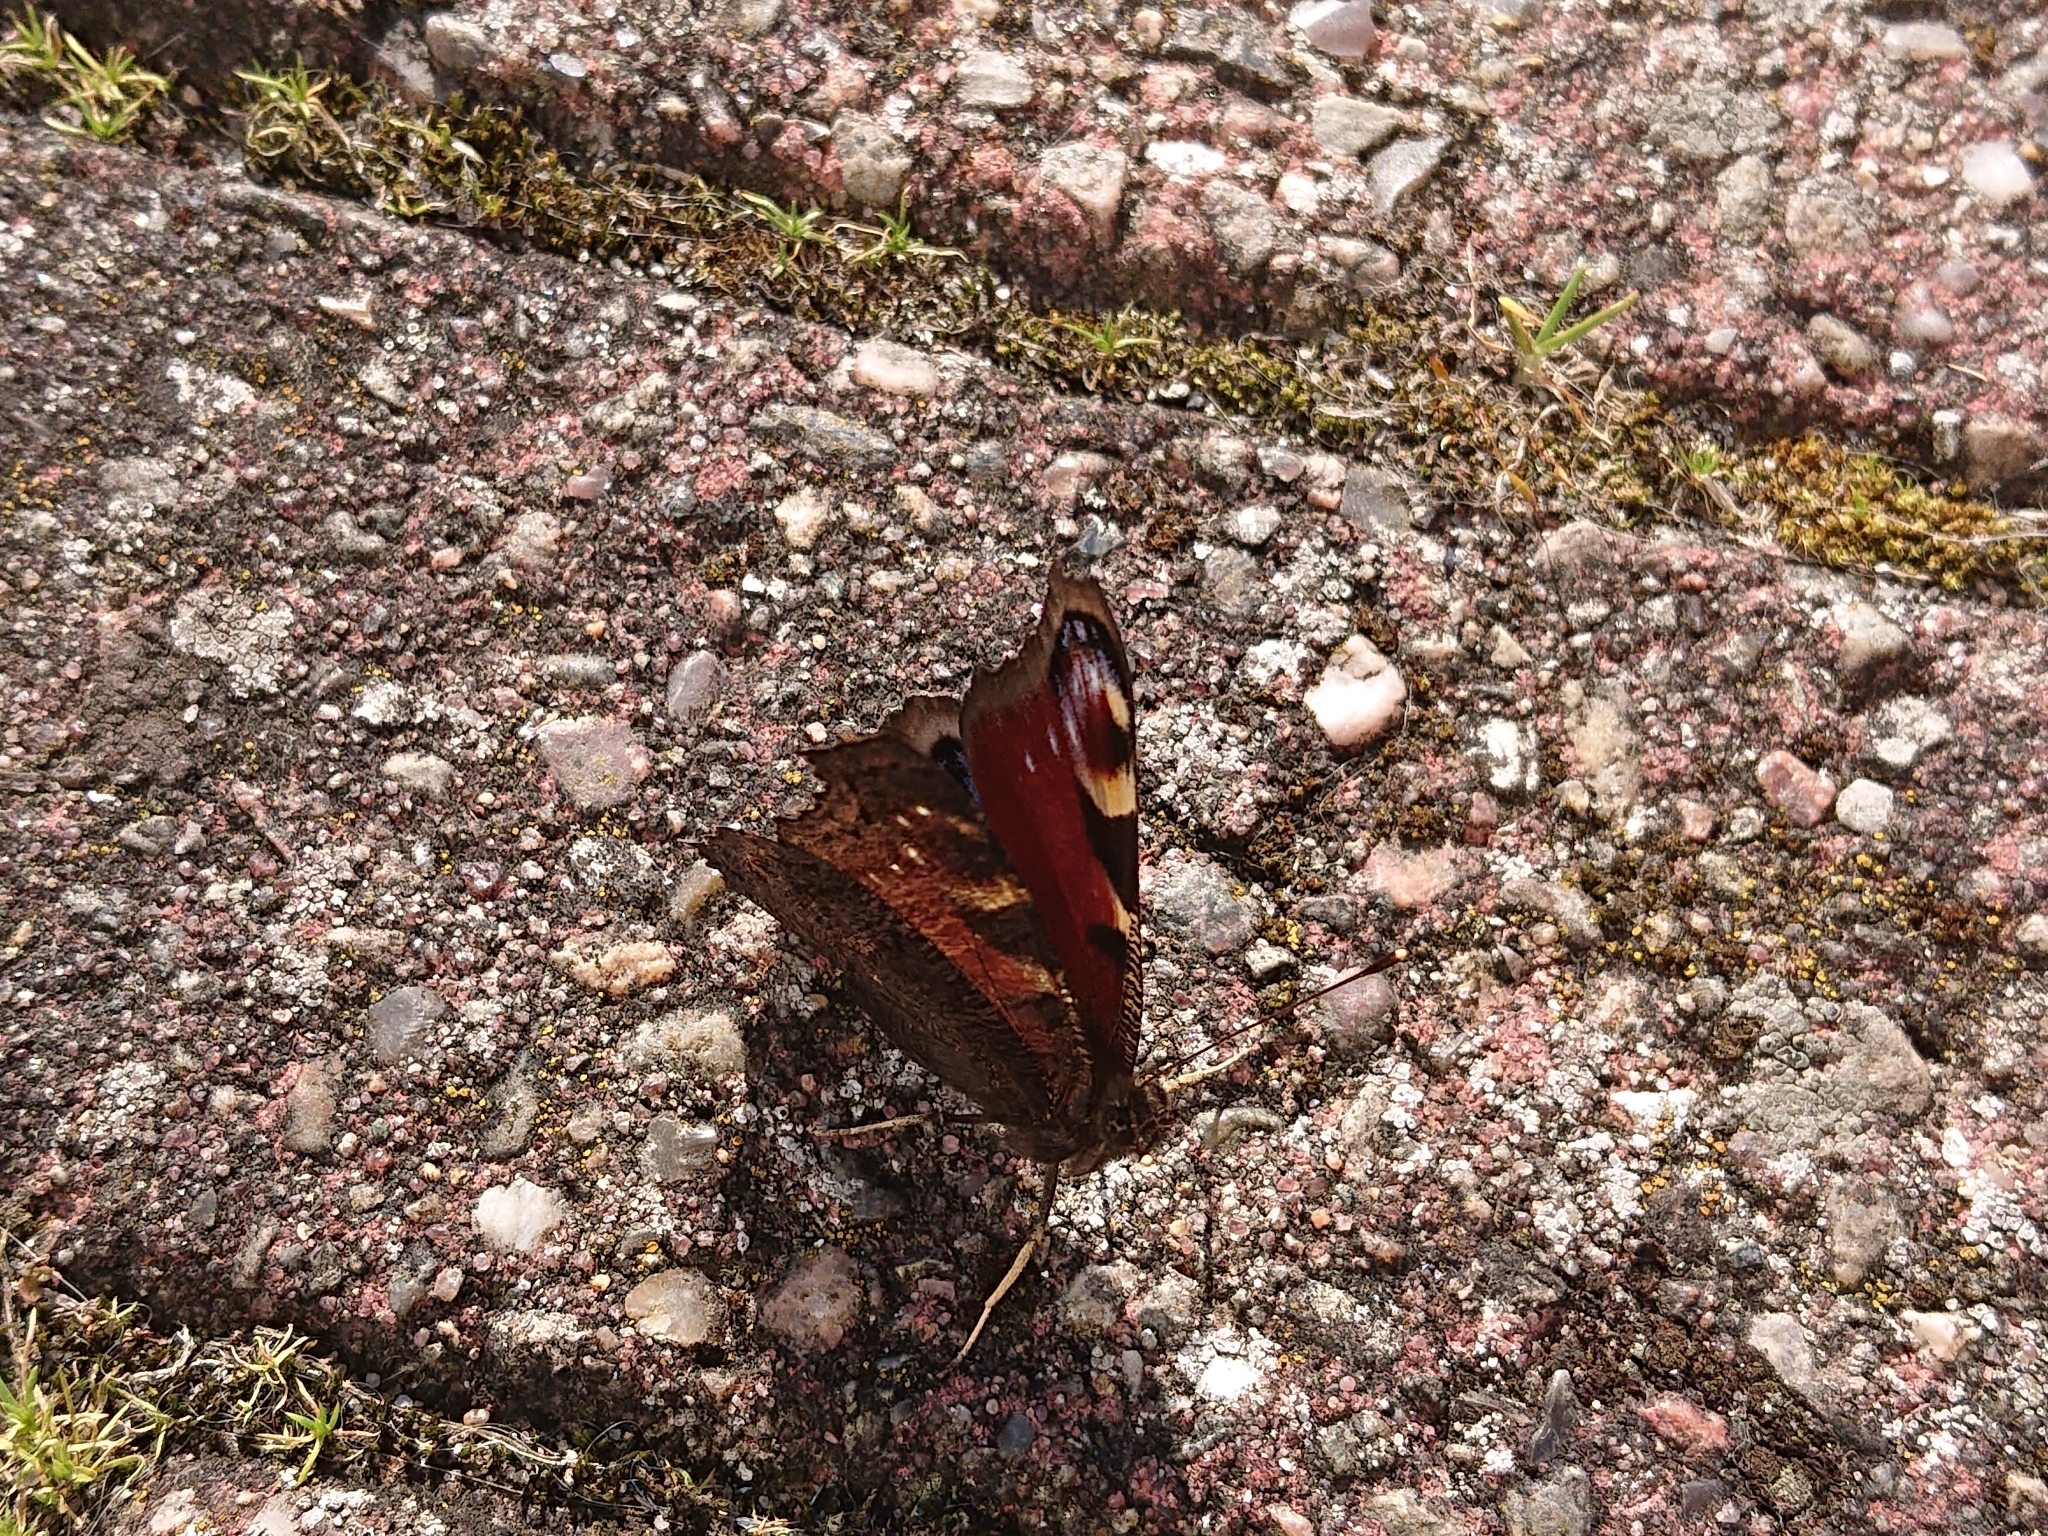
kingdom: Animalia
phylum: Arthropoda
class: Insecta
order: Lepidoptera
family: Nymphalidae
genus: Aglais
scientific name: Aglais io
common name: Peacock
